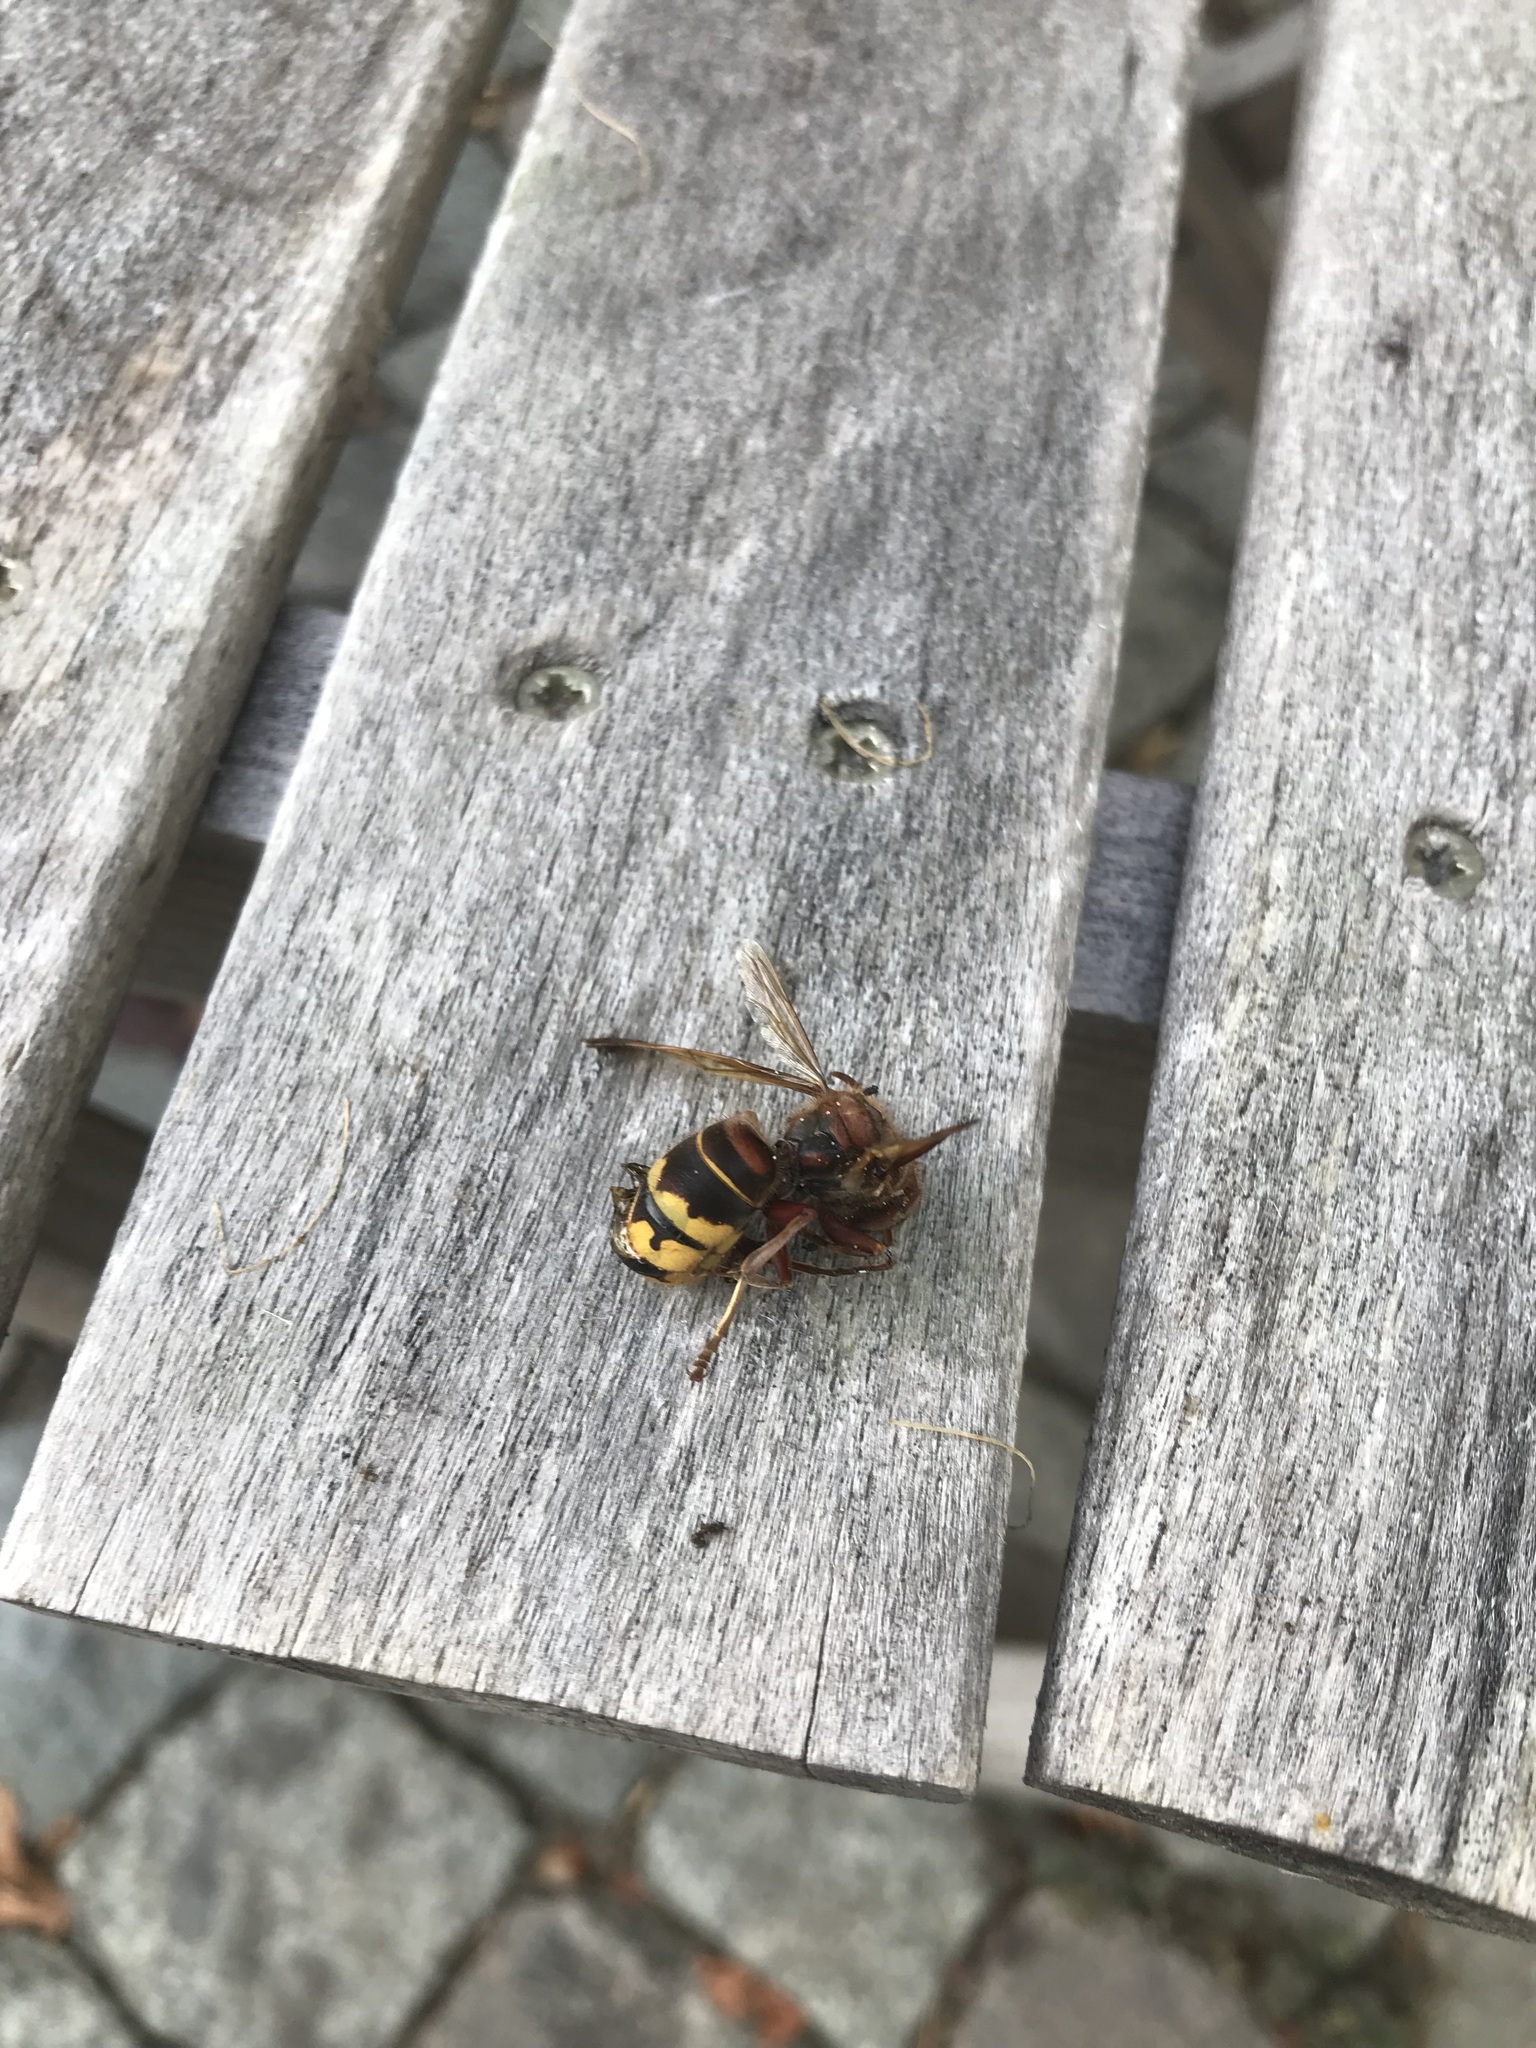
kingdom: Animalia
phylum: Arthropoda
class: Insecta
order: Hymenoptera
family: Vespidae
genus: Vespa
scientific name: Vespa crabro
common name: Hornet
